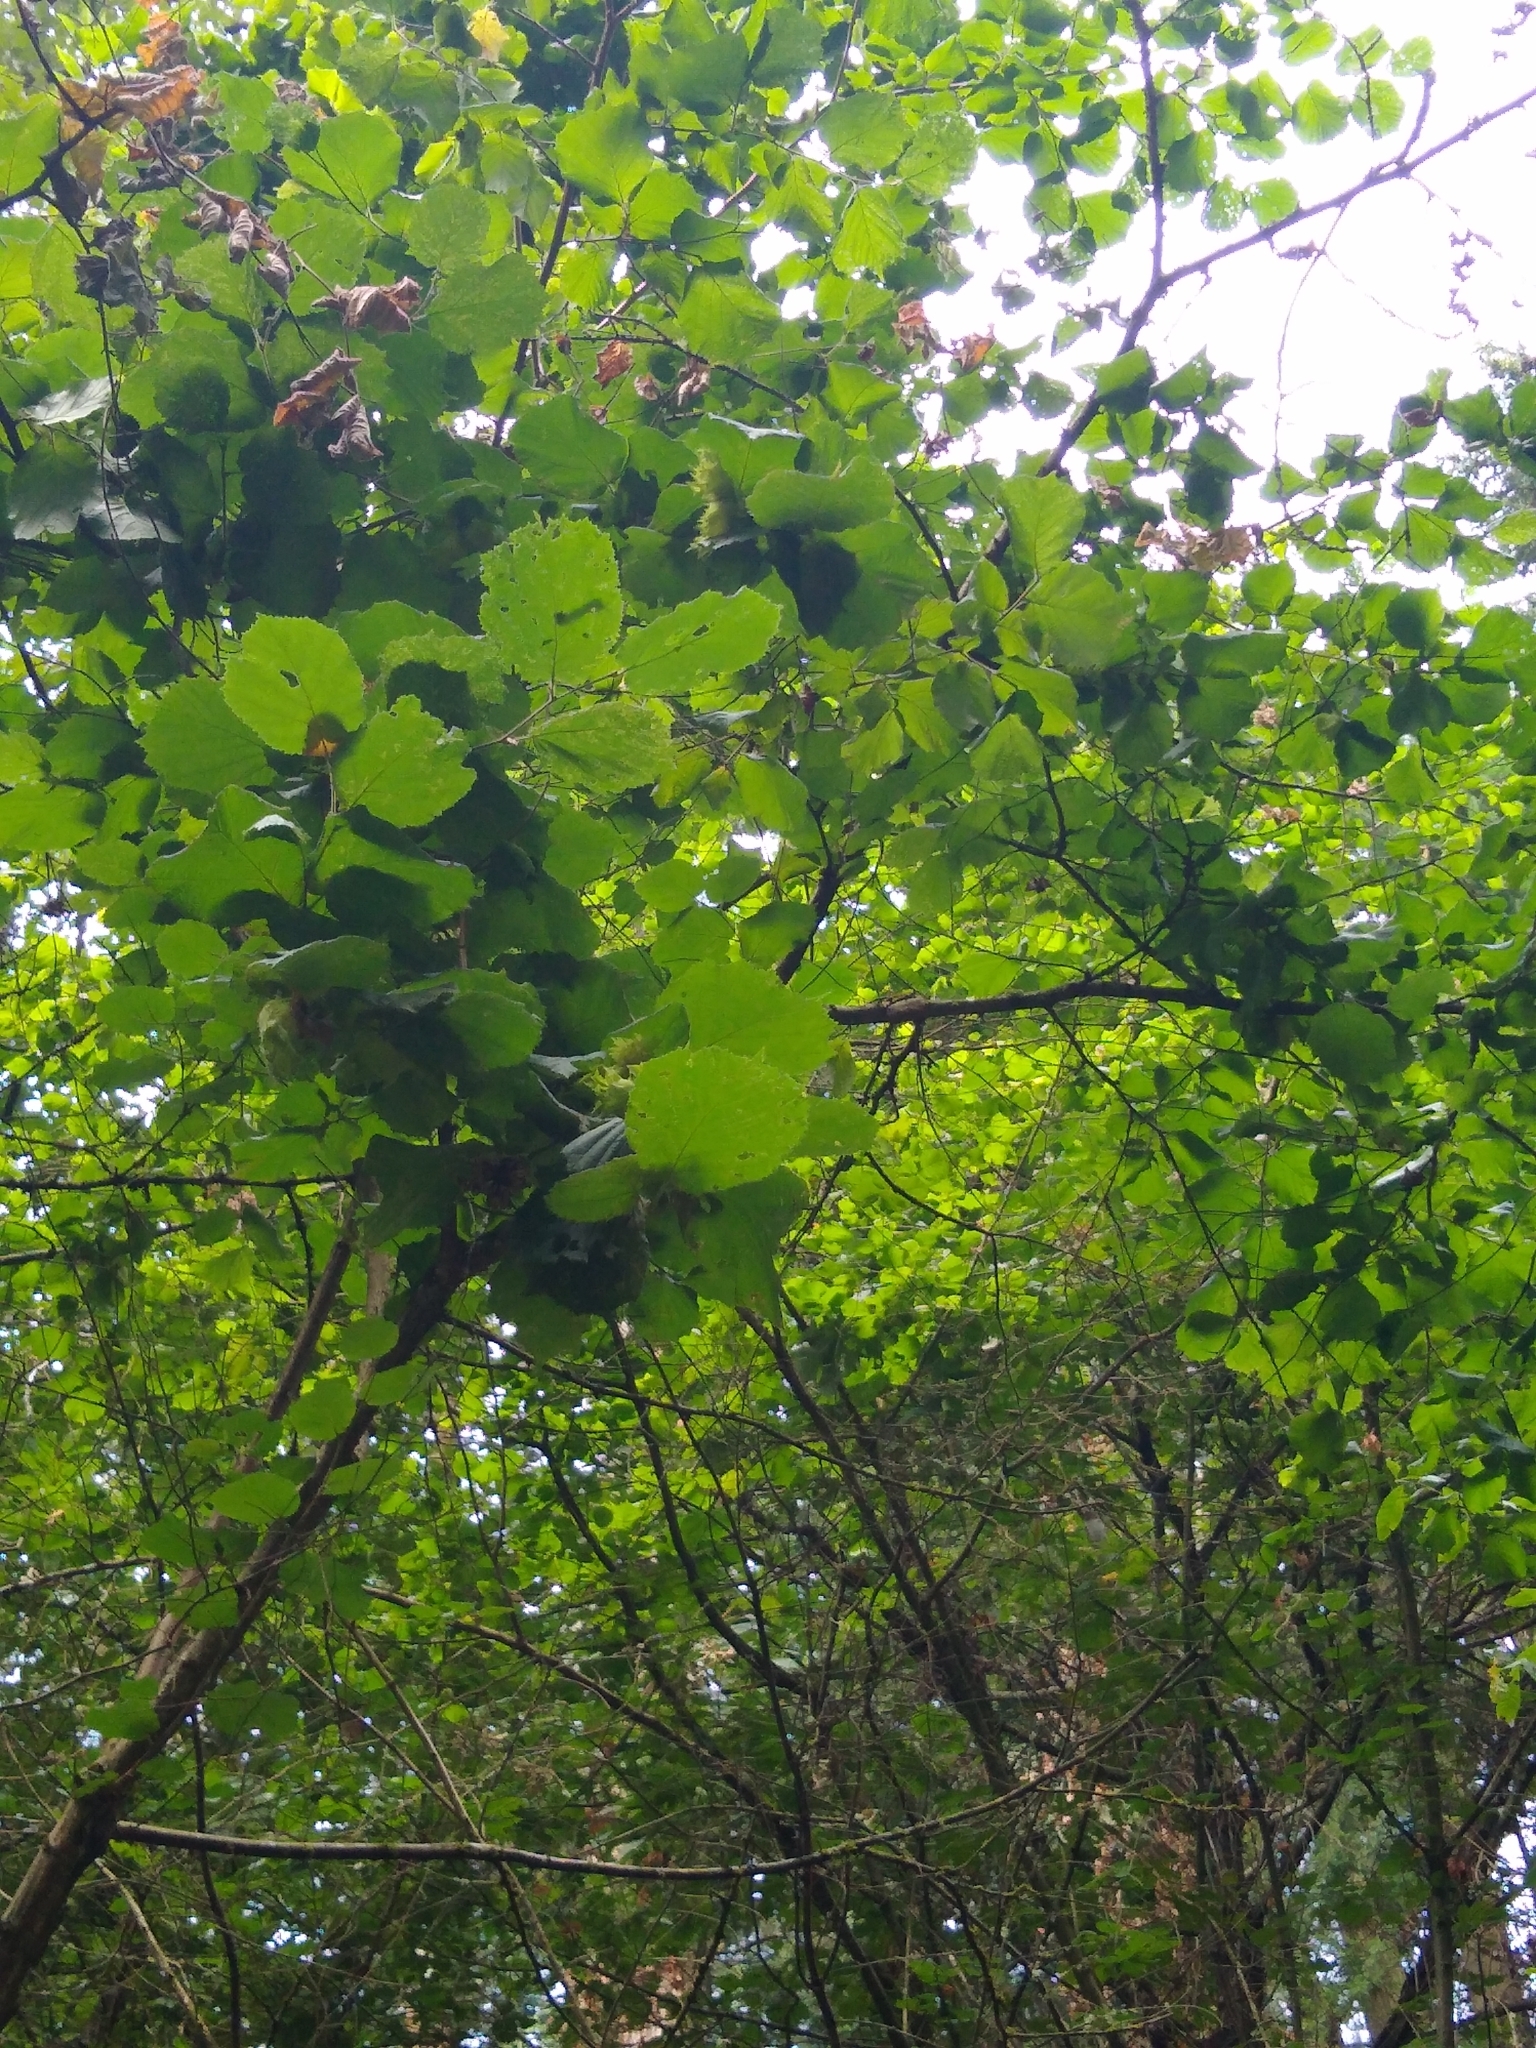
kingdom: Plantae
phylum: Tracheophyta
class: Magnoliopsida
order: Fagales
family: Betulaceae
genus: Corylus
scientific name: Corylus avellana
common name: European hazel
